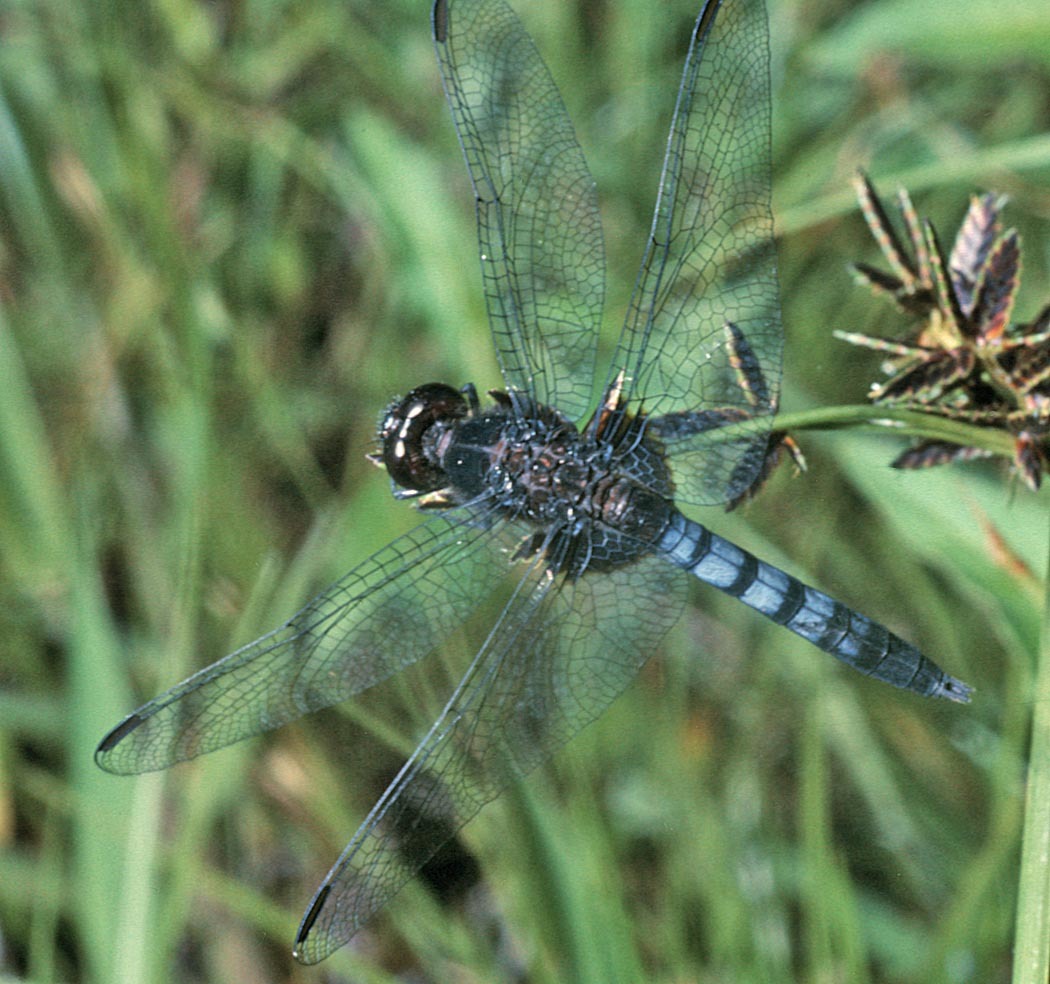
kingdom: Animalia
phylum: Arthropoda
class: Insecta
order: Odonata
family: Libellulidae
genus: Erythrodiplax
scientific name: Erythrodiplax abjecta
